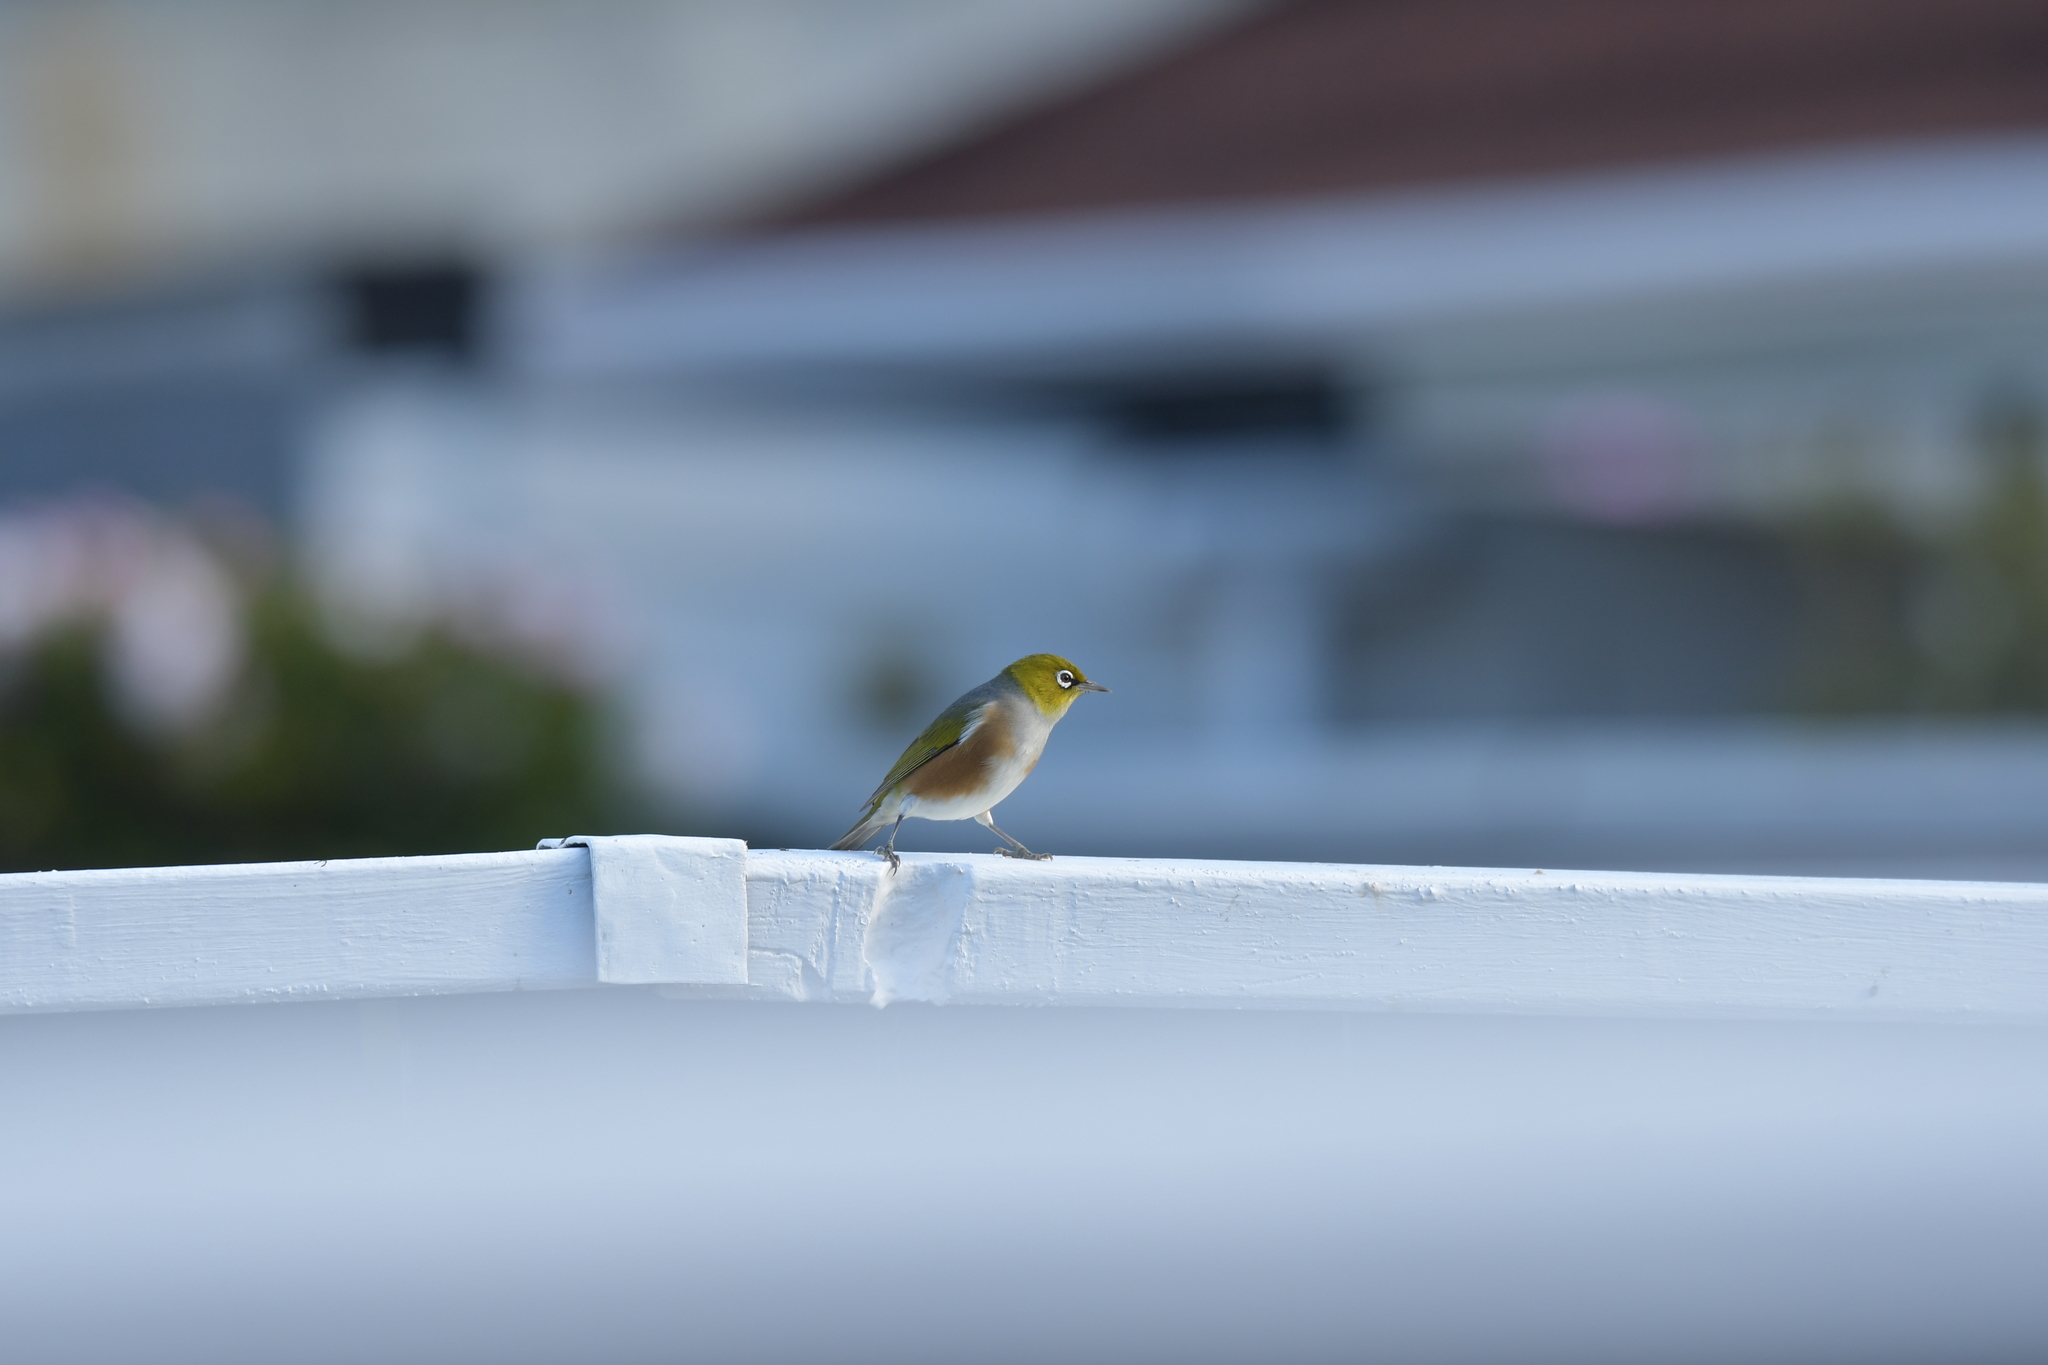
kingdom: Animalia
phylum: Chordata
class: Aves
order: Passeriformes
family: Zosteropidae
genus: Zosterops
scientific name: Zosterops lateralis
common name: Silvereye
